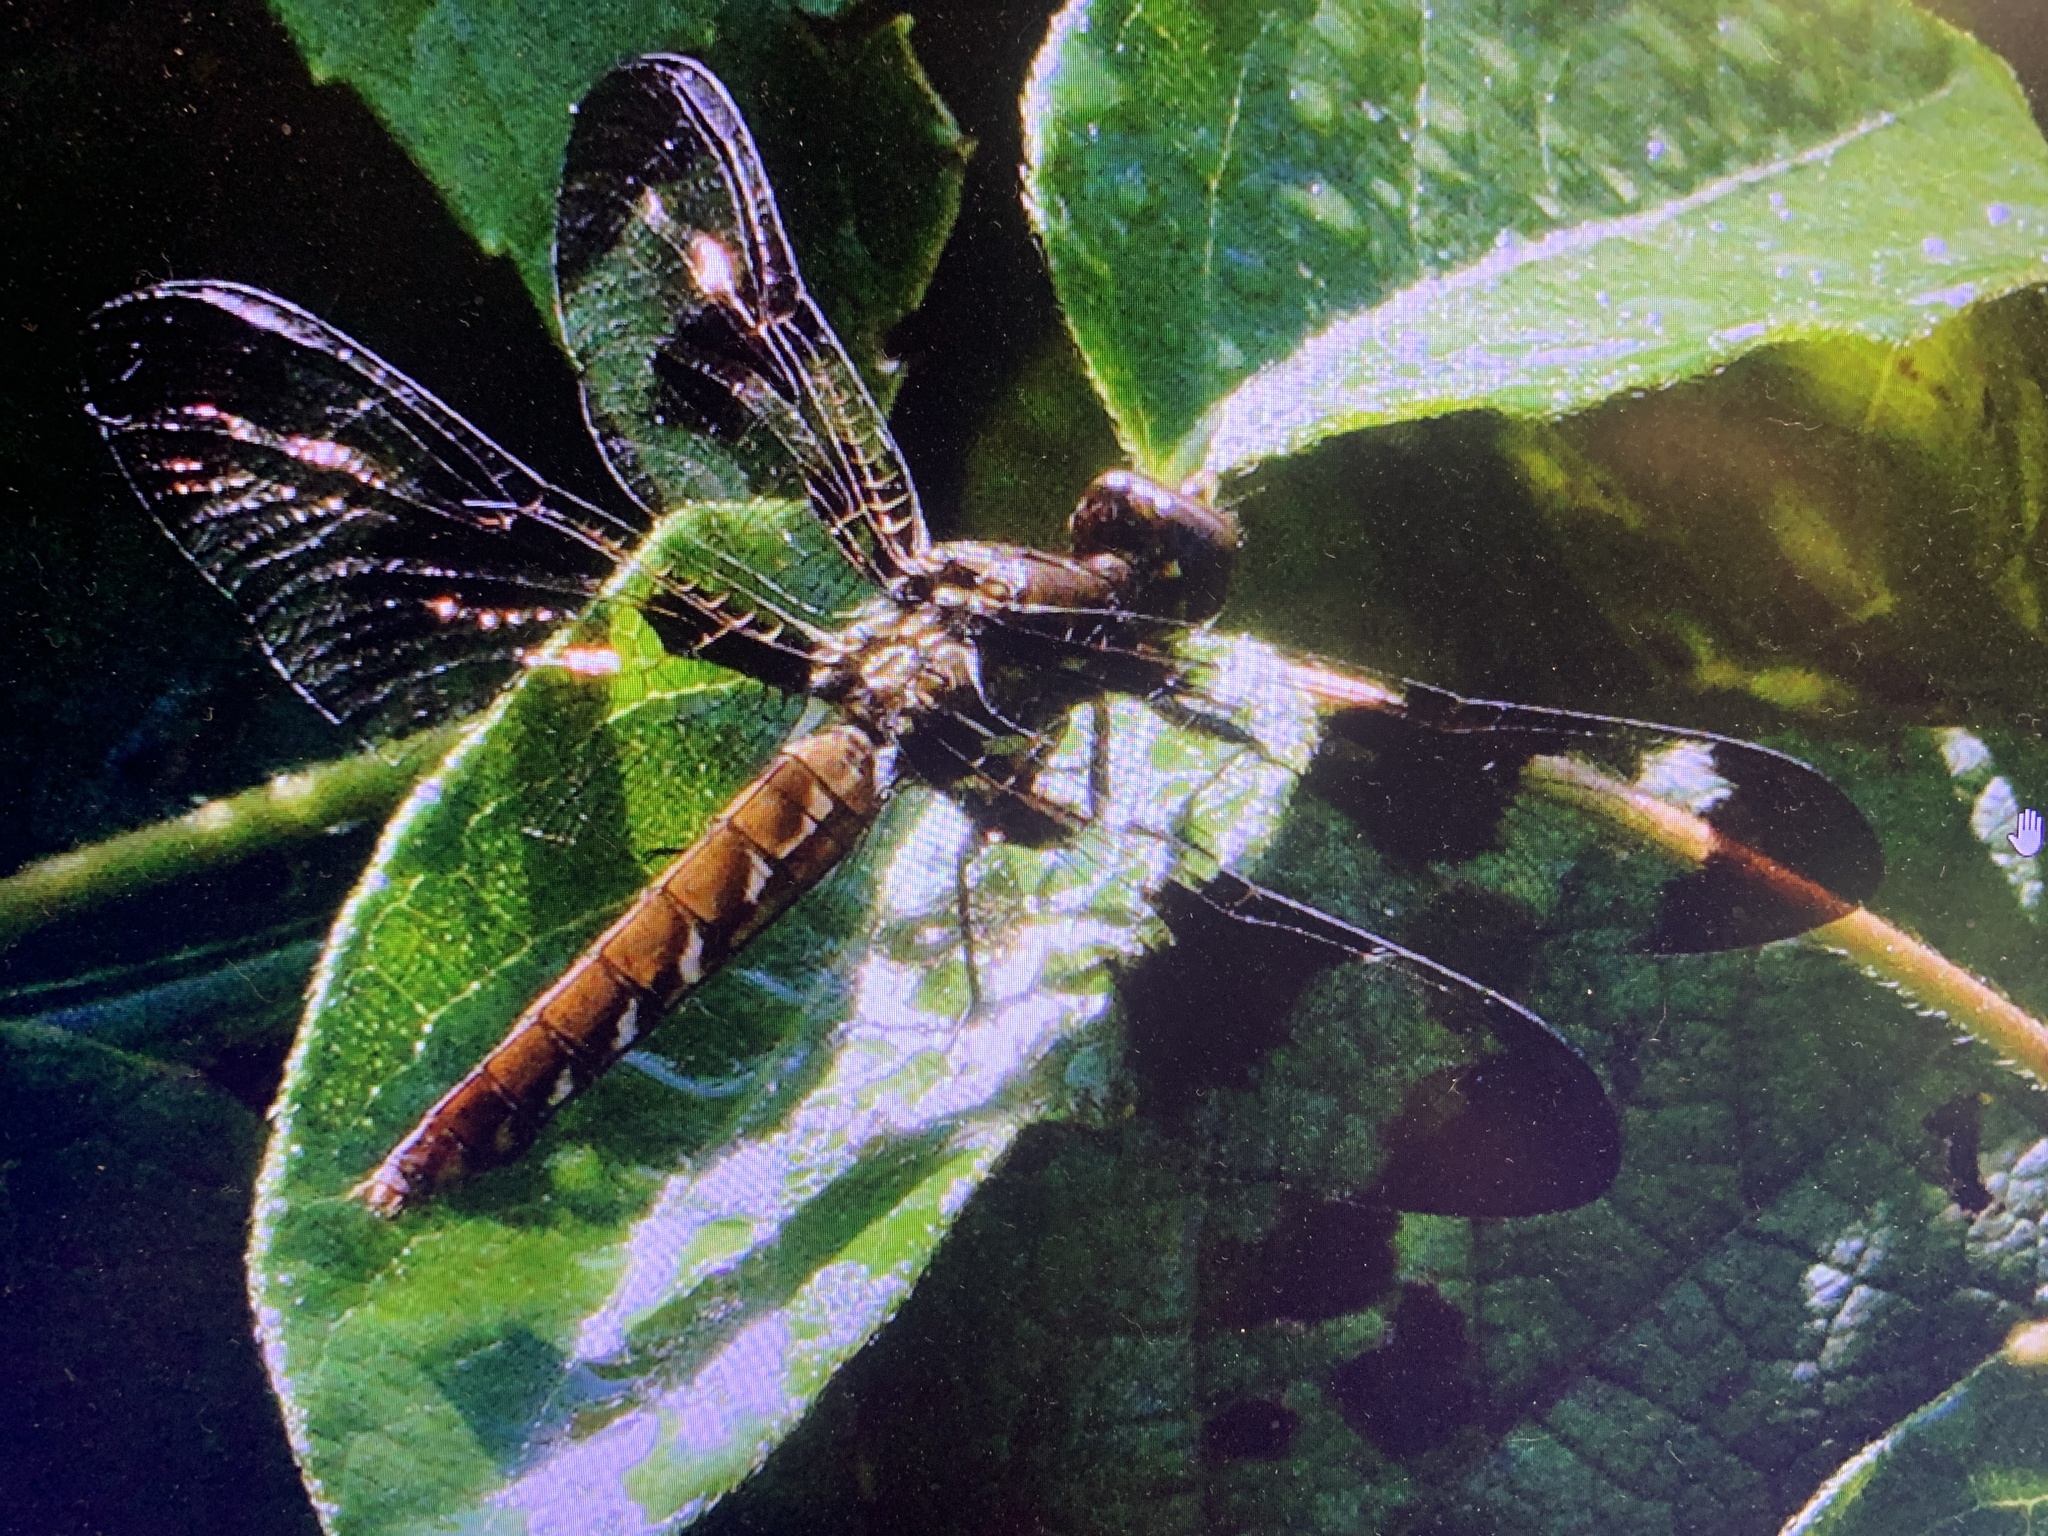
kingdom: Animalia
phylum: Arthropoda
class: Insecta
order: Odonata
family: Libellulidae
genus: Plathemis
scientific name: Plathemis lydia
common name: Common whitetail
